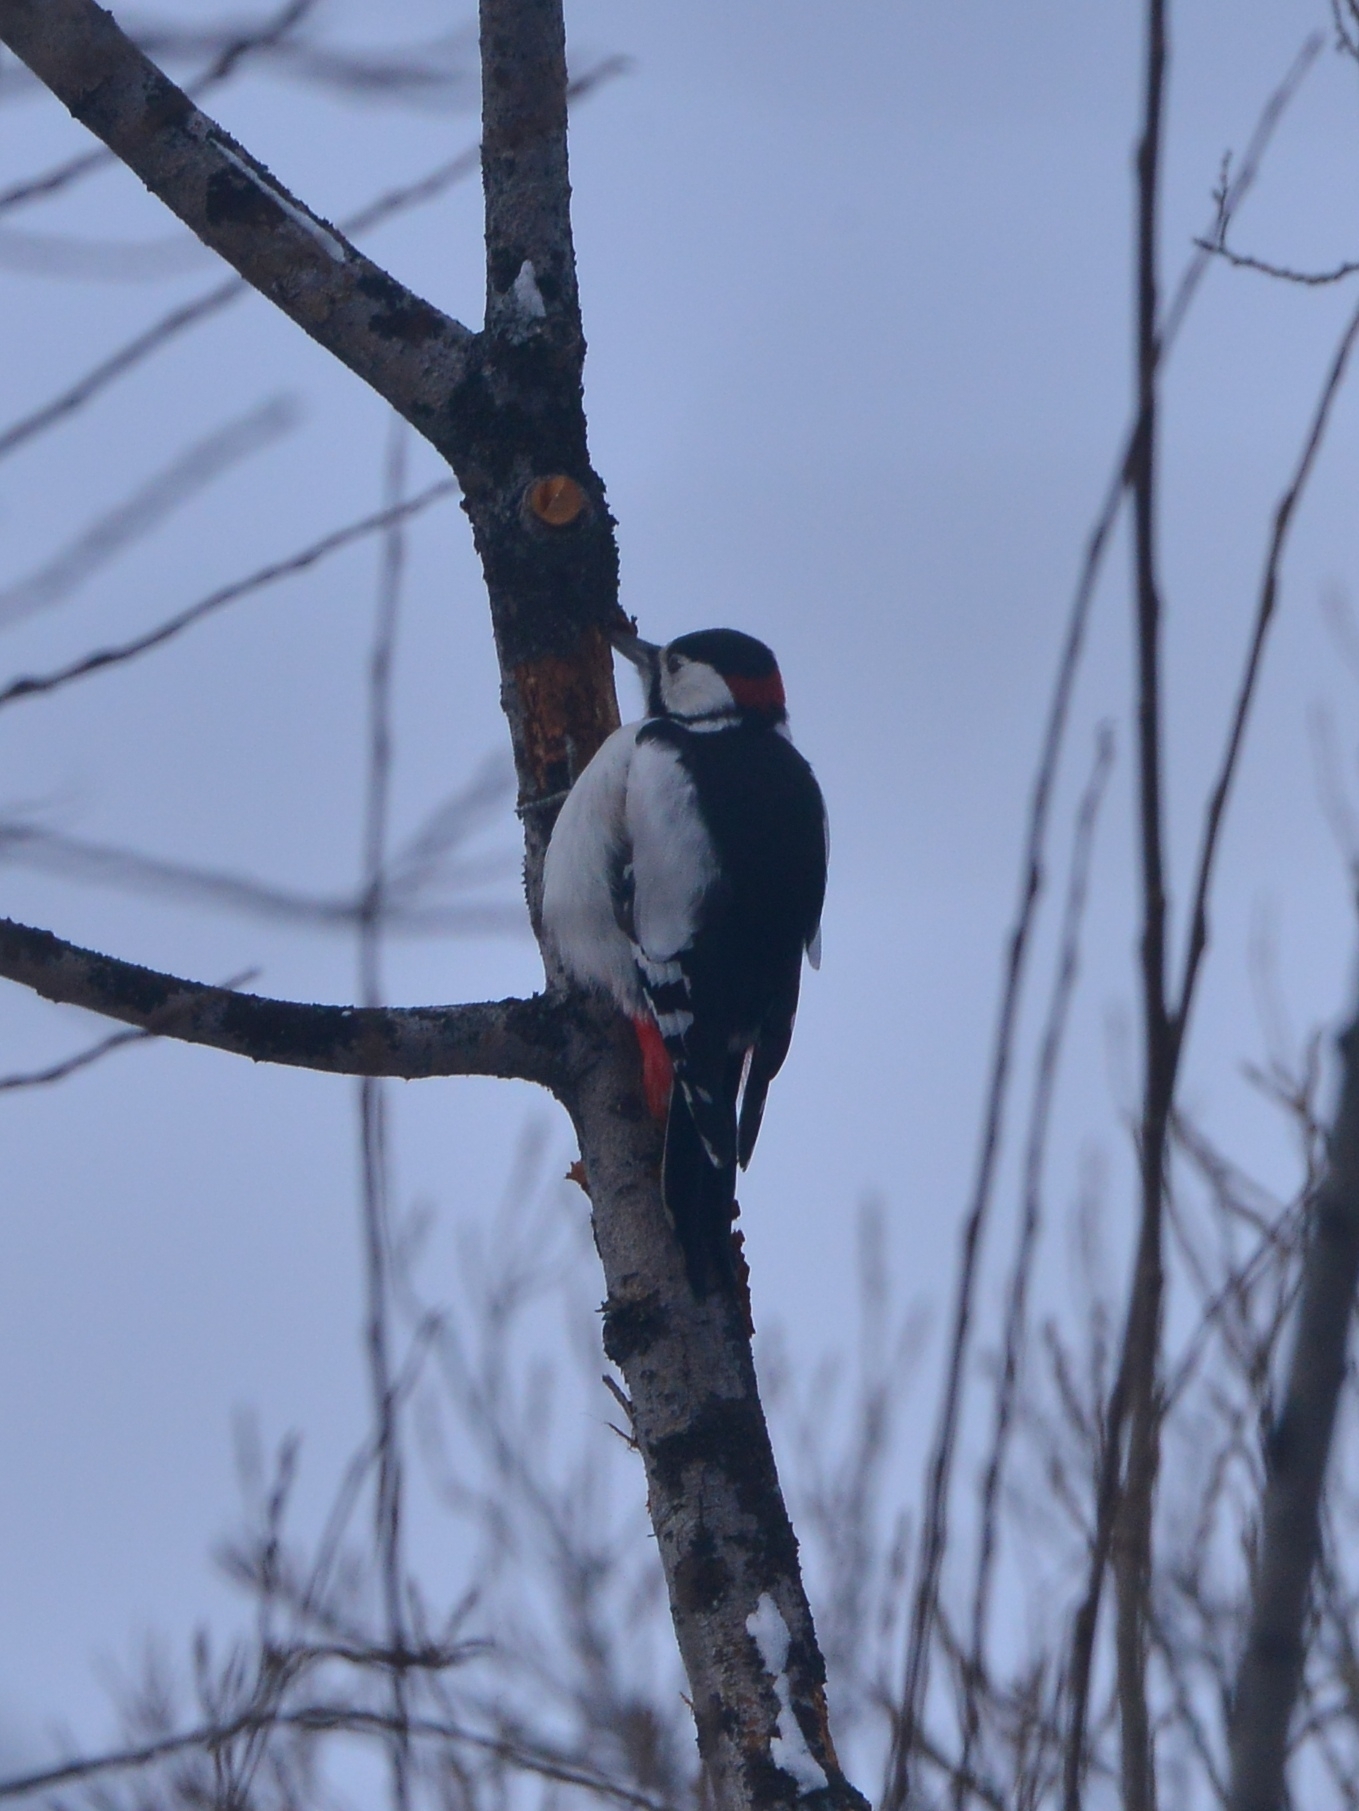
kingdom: Animalia
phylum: Chordata
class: Aves
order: Piciformes
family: Picidae
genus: Dendrocopos
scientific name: Dendrocopos major
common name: Great spotted woodpecker
